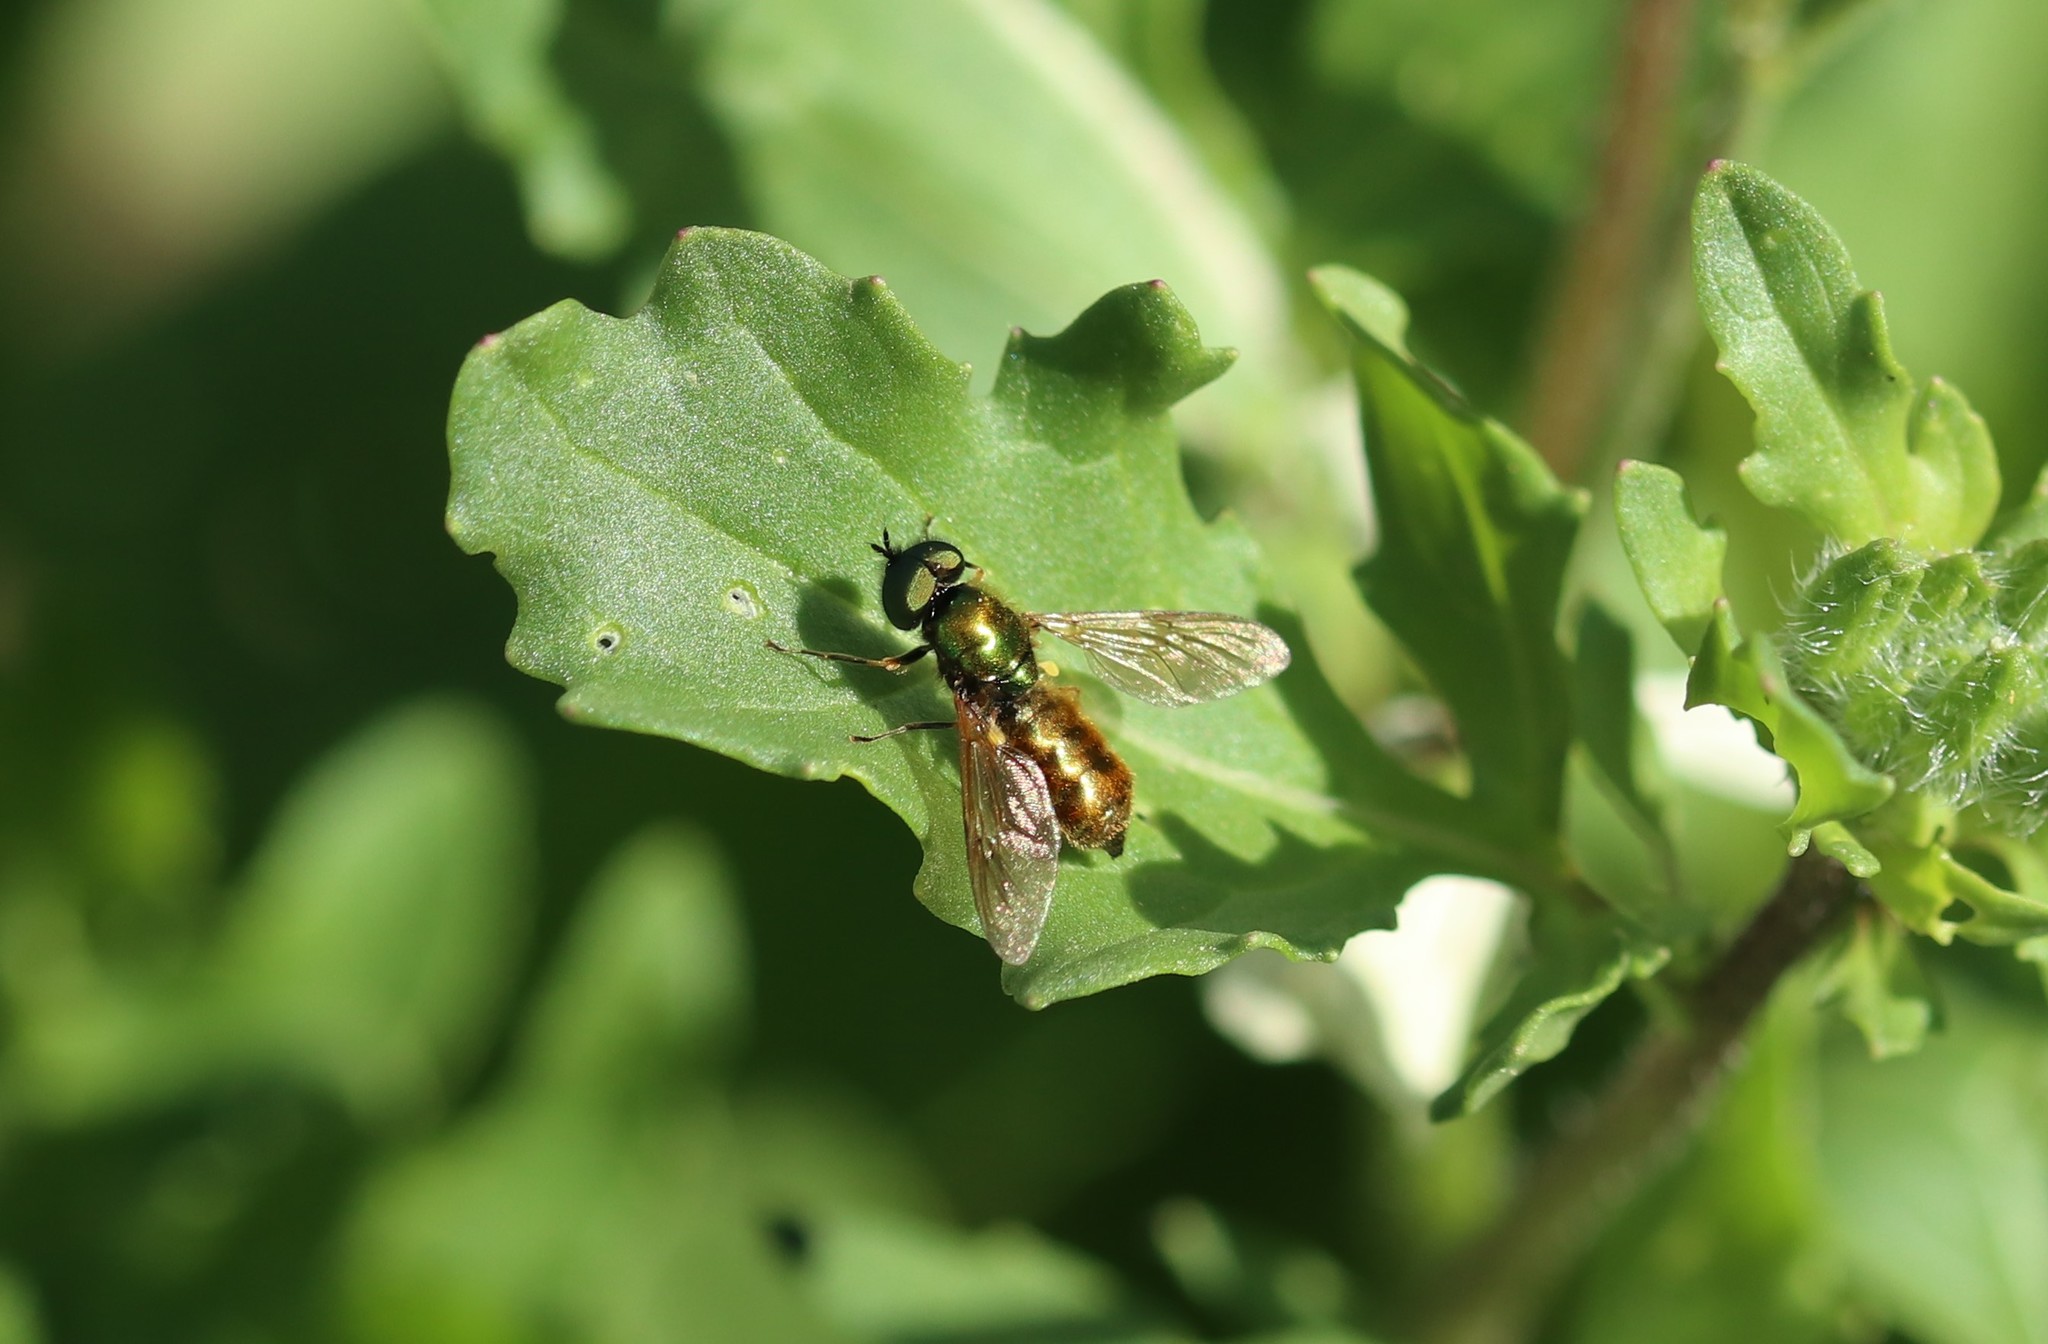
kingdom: Animalia
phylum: Arthropoda
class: Insecta
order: Diptera
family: Stratiomyidae
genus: Chloromyia
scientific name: Chloromyia formosa
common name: Soldier fly
